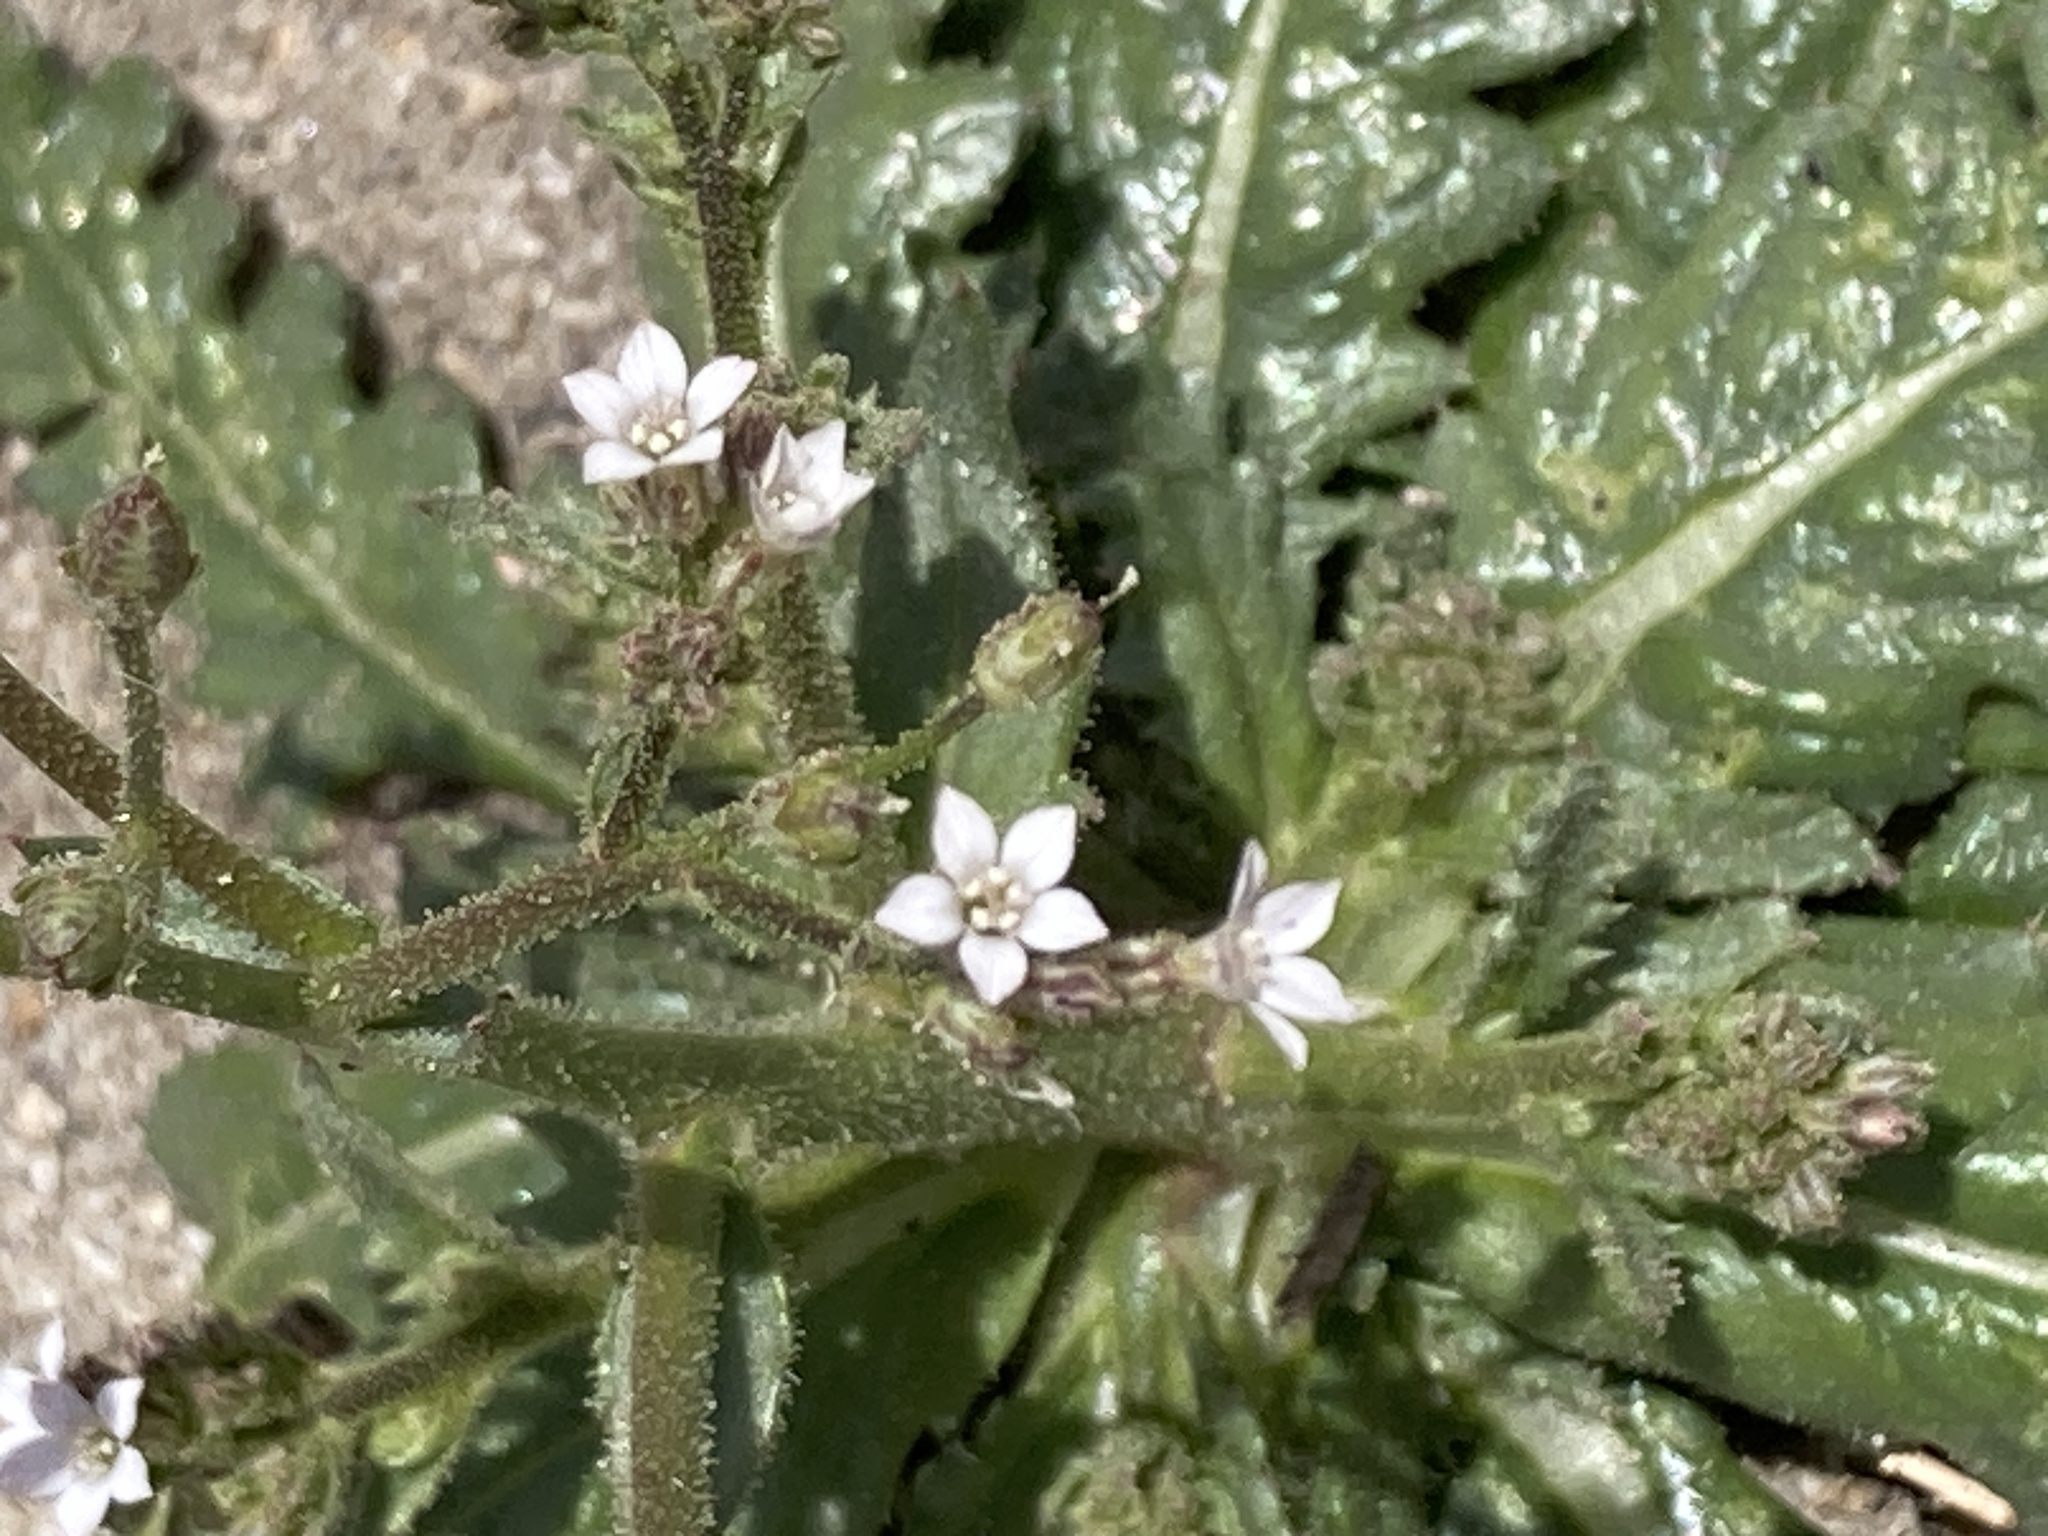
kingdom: Plantae
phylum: Tracheophyta
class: Magnoliopsida
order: Ericales
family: Polemoniaceae
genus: Aliciella
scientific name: Aliciella lottiae
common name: Lott's gilia
